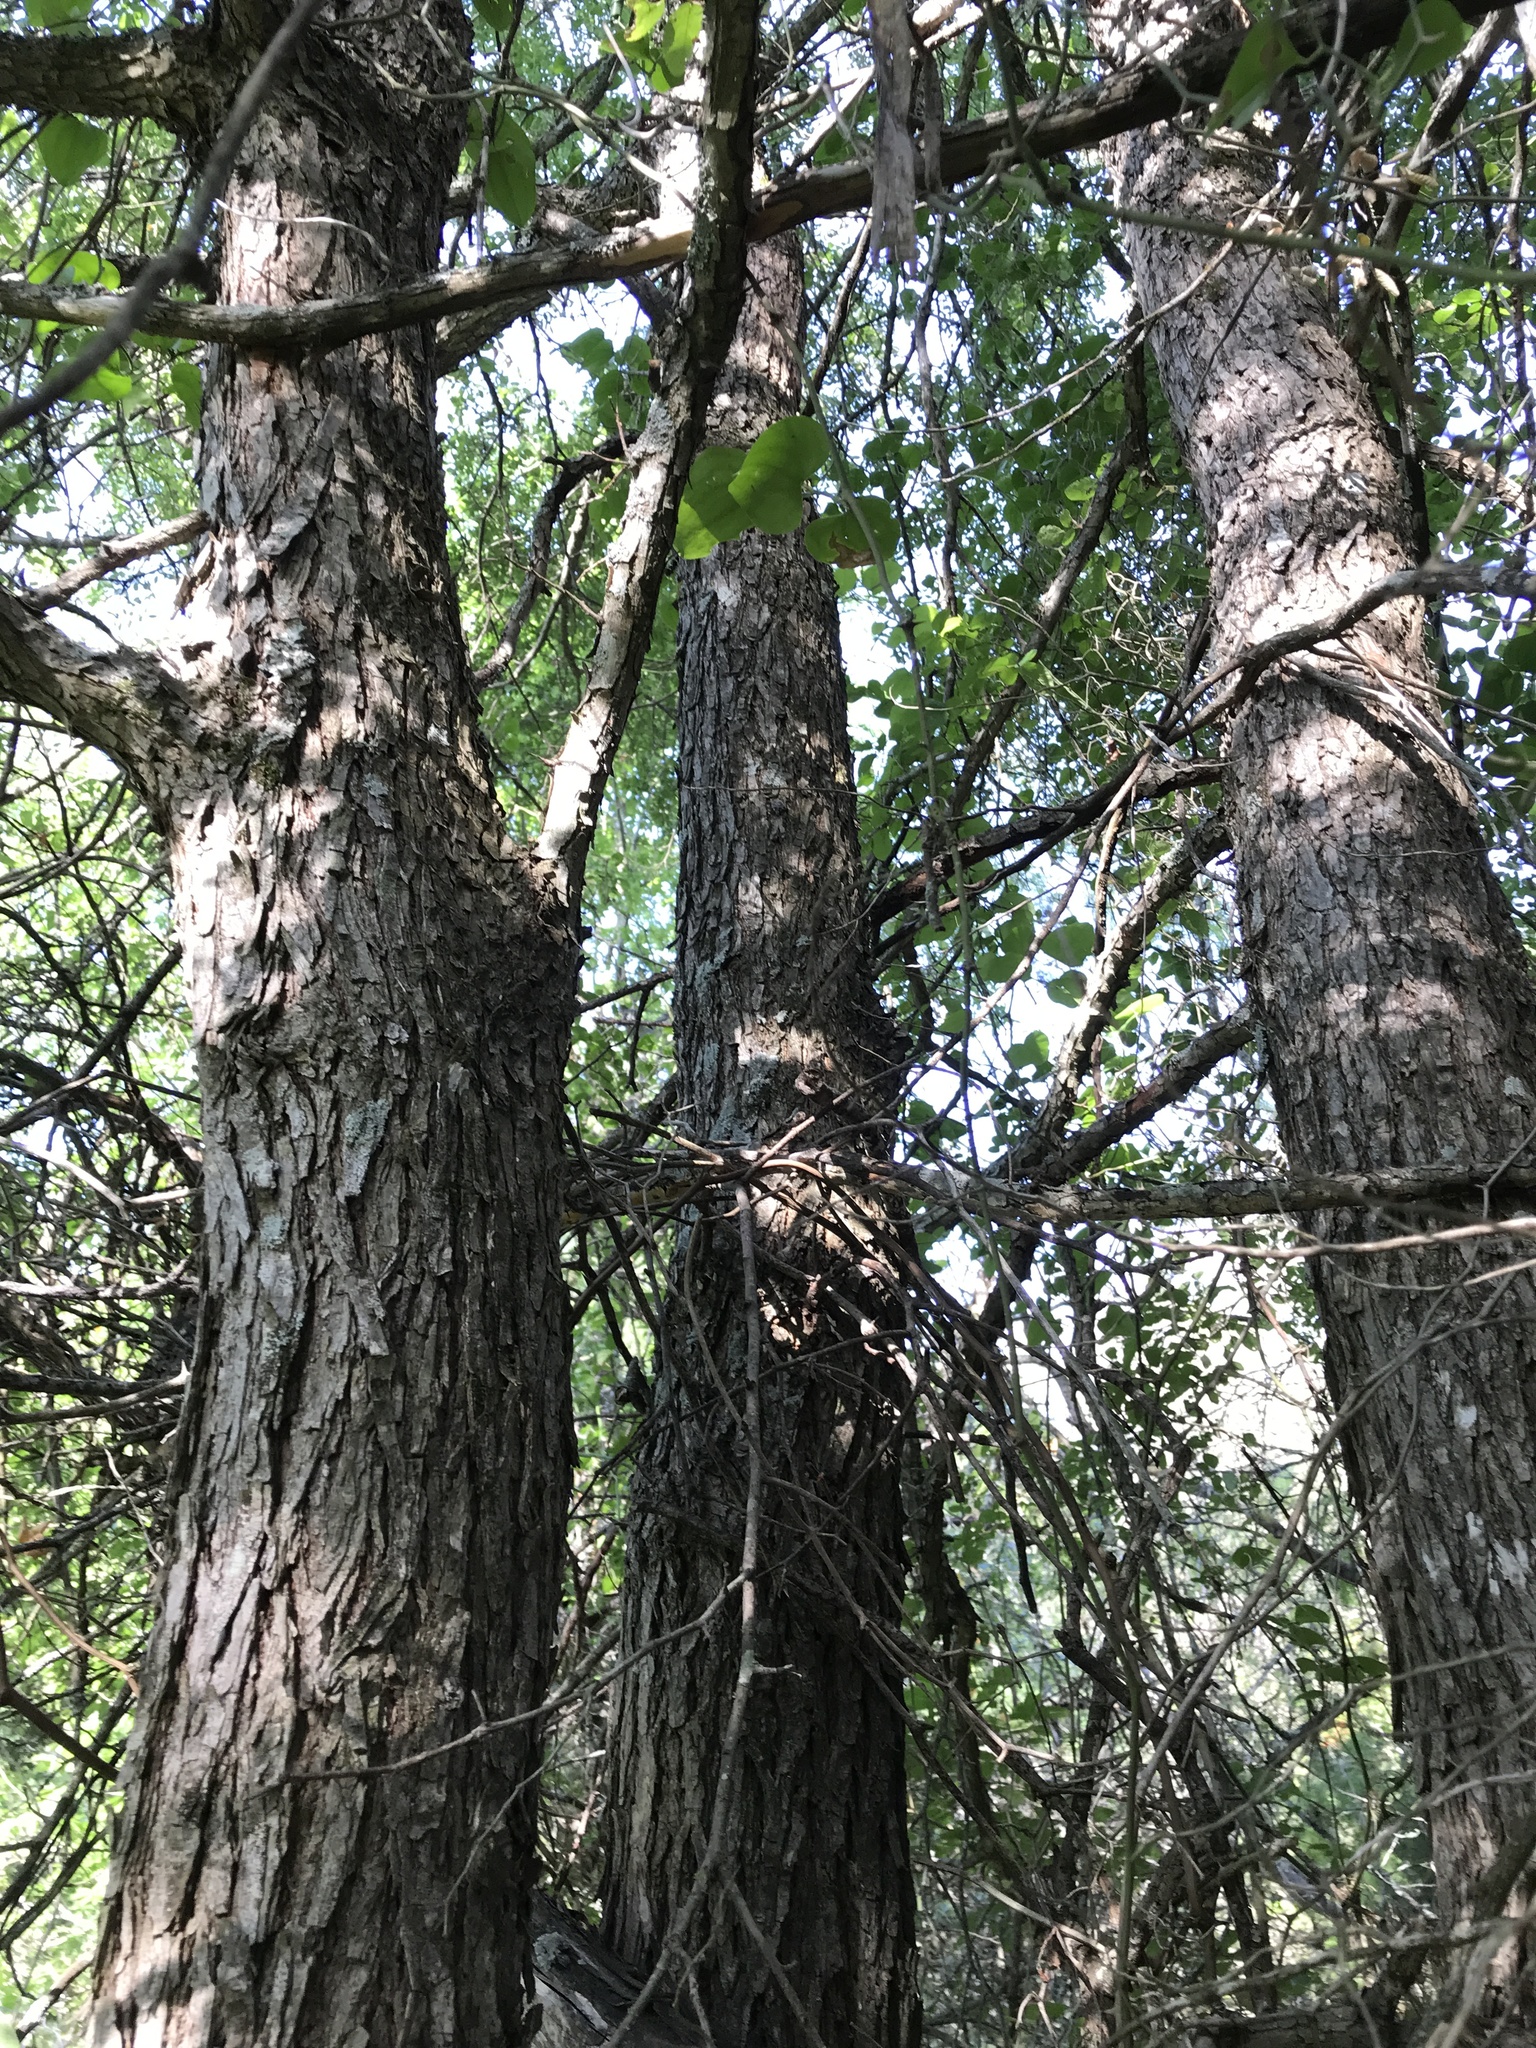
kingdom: Plantae
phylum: Tracheophyta
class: Magnoliopsida
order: Rosales
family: Ulmaceae
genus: Ulmus
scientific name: Ulmus crassifolia
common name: Basket elm
